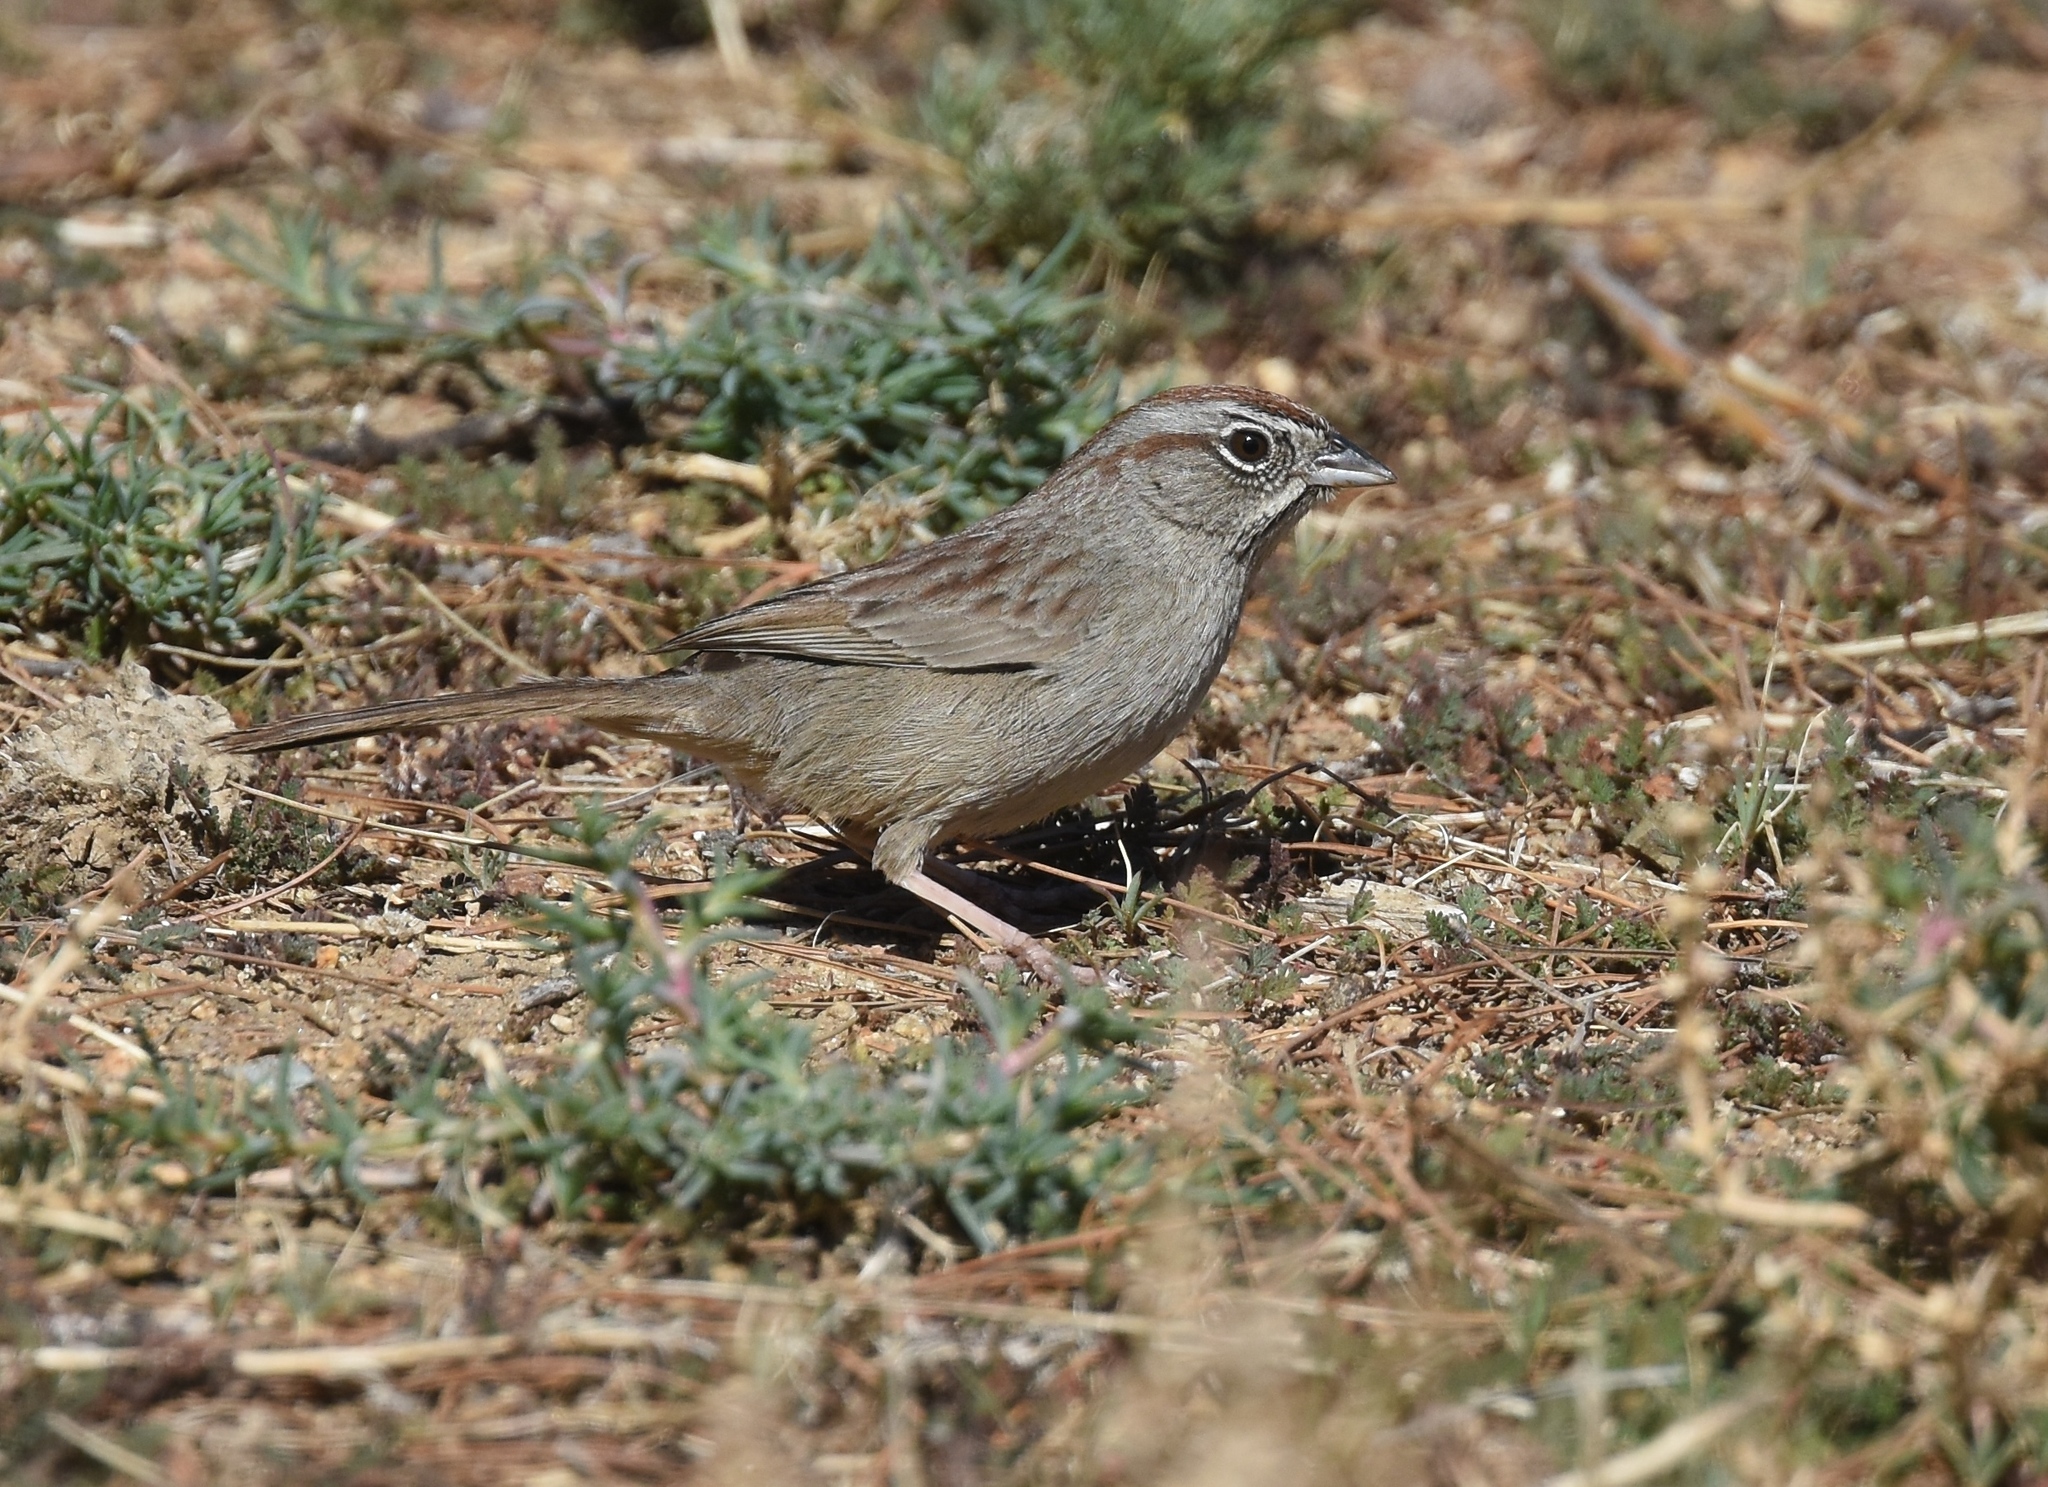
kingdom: Animalia
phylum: Chordata
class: Aves
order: Passeriformes
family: Passerellidae
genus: Aimophila
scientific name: Aimophila ruficeps
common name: Rufous-crowned sparrow
